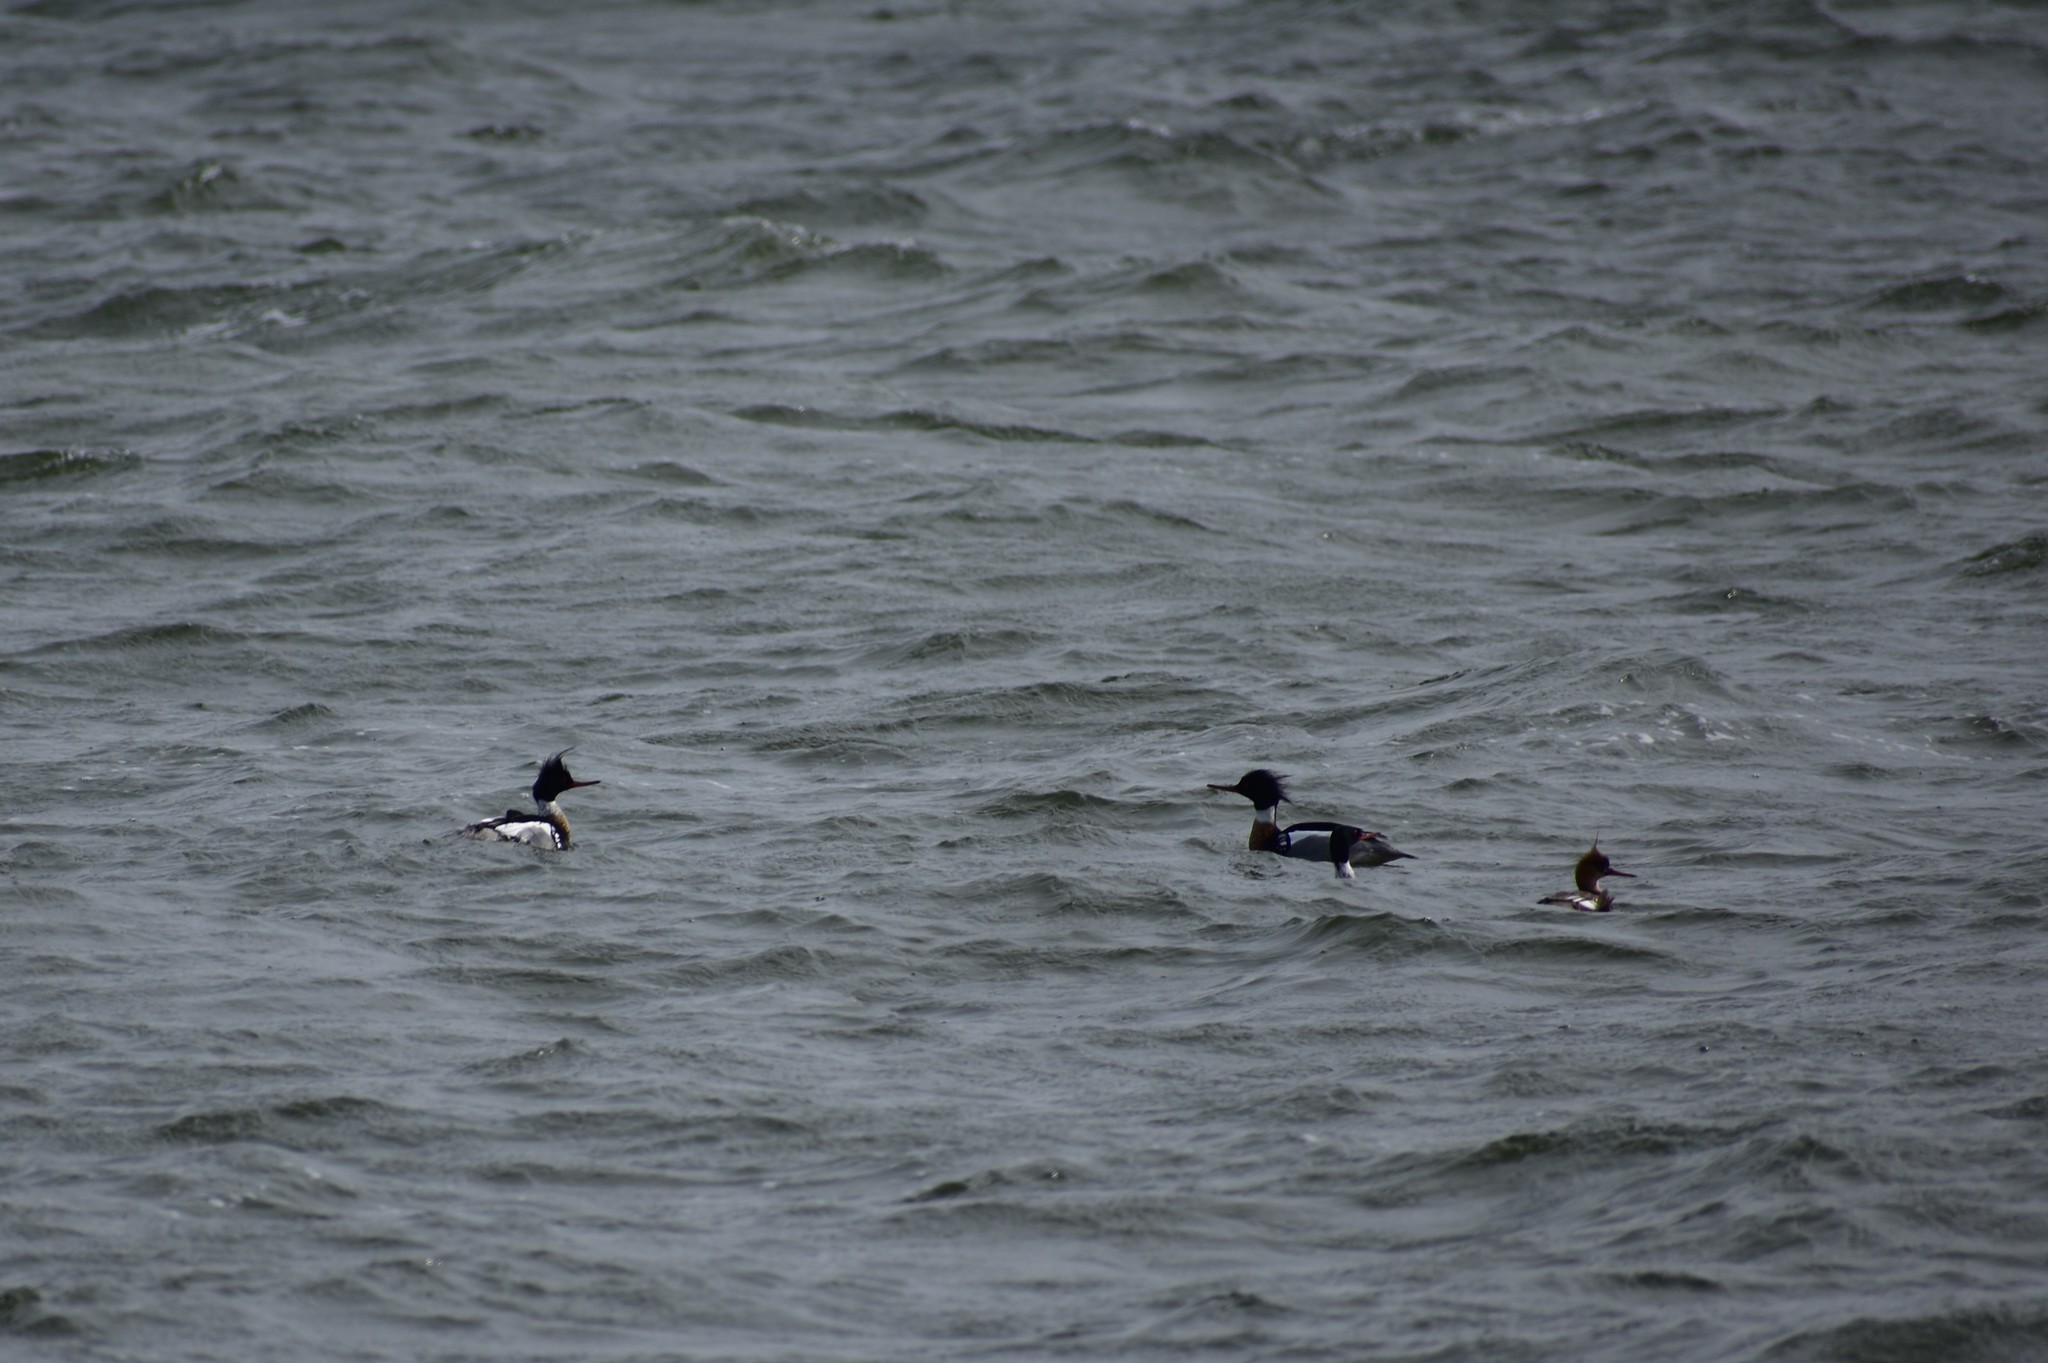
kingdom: Animalia
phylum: Chordata
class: Aves
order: Anseriformes
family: Anatidae
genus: Mergus
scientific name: Mergus serrator
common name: Red-breasted merganser
